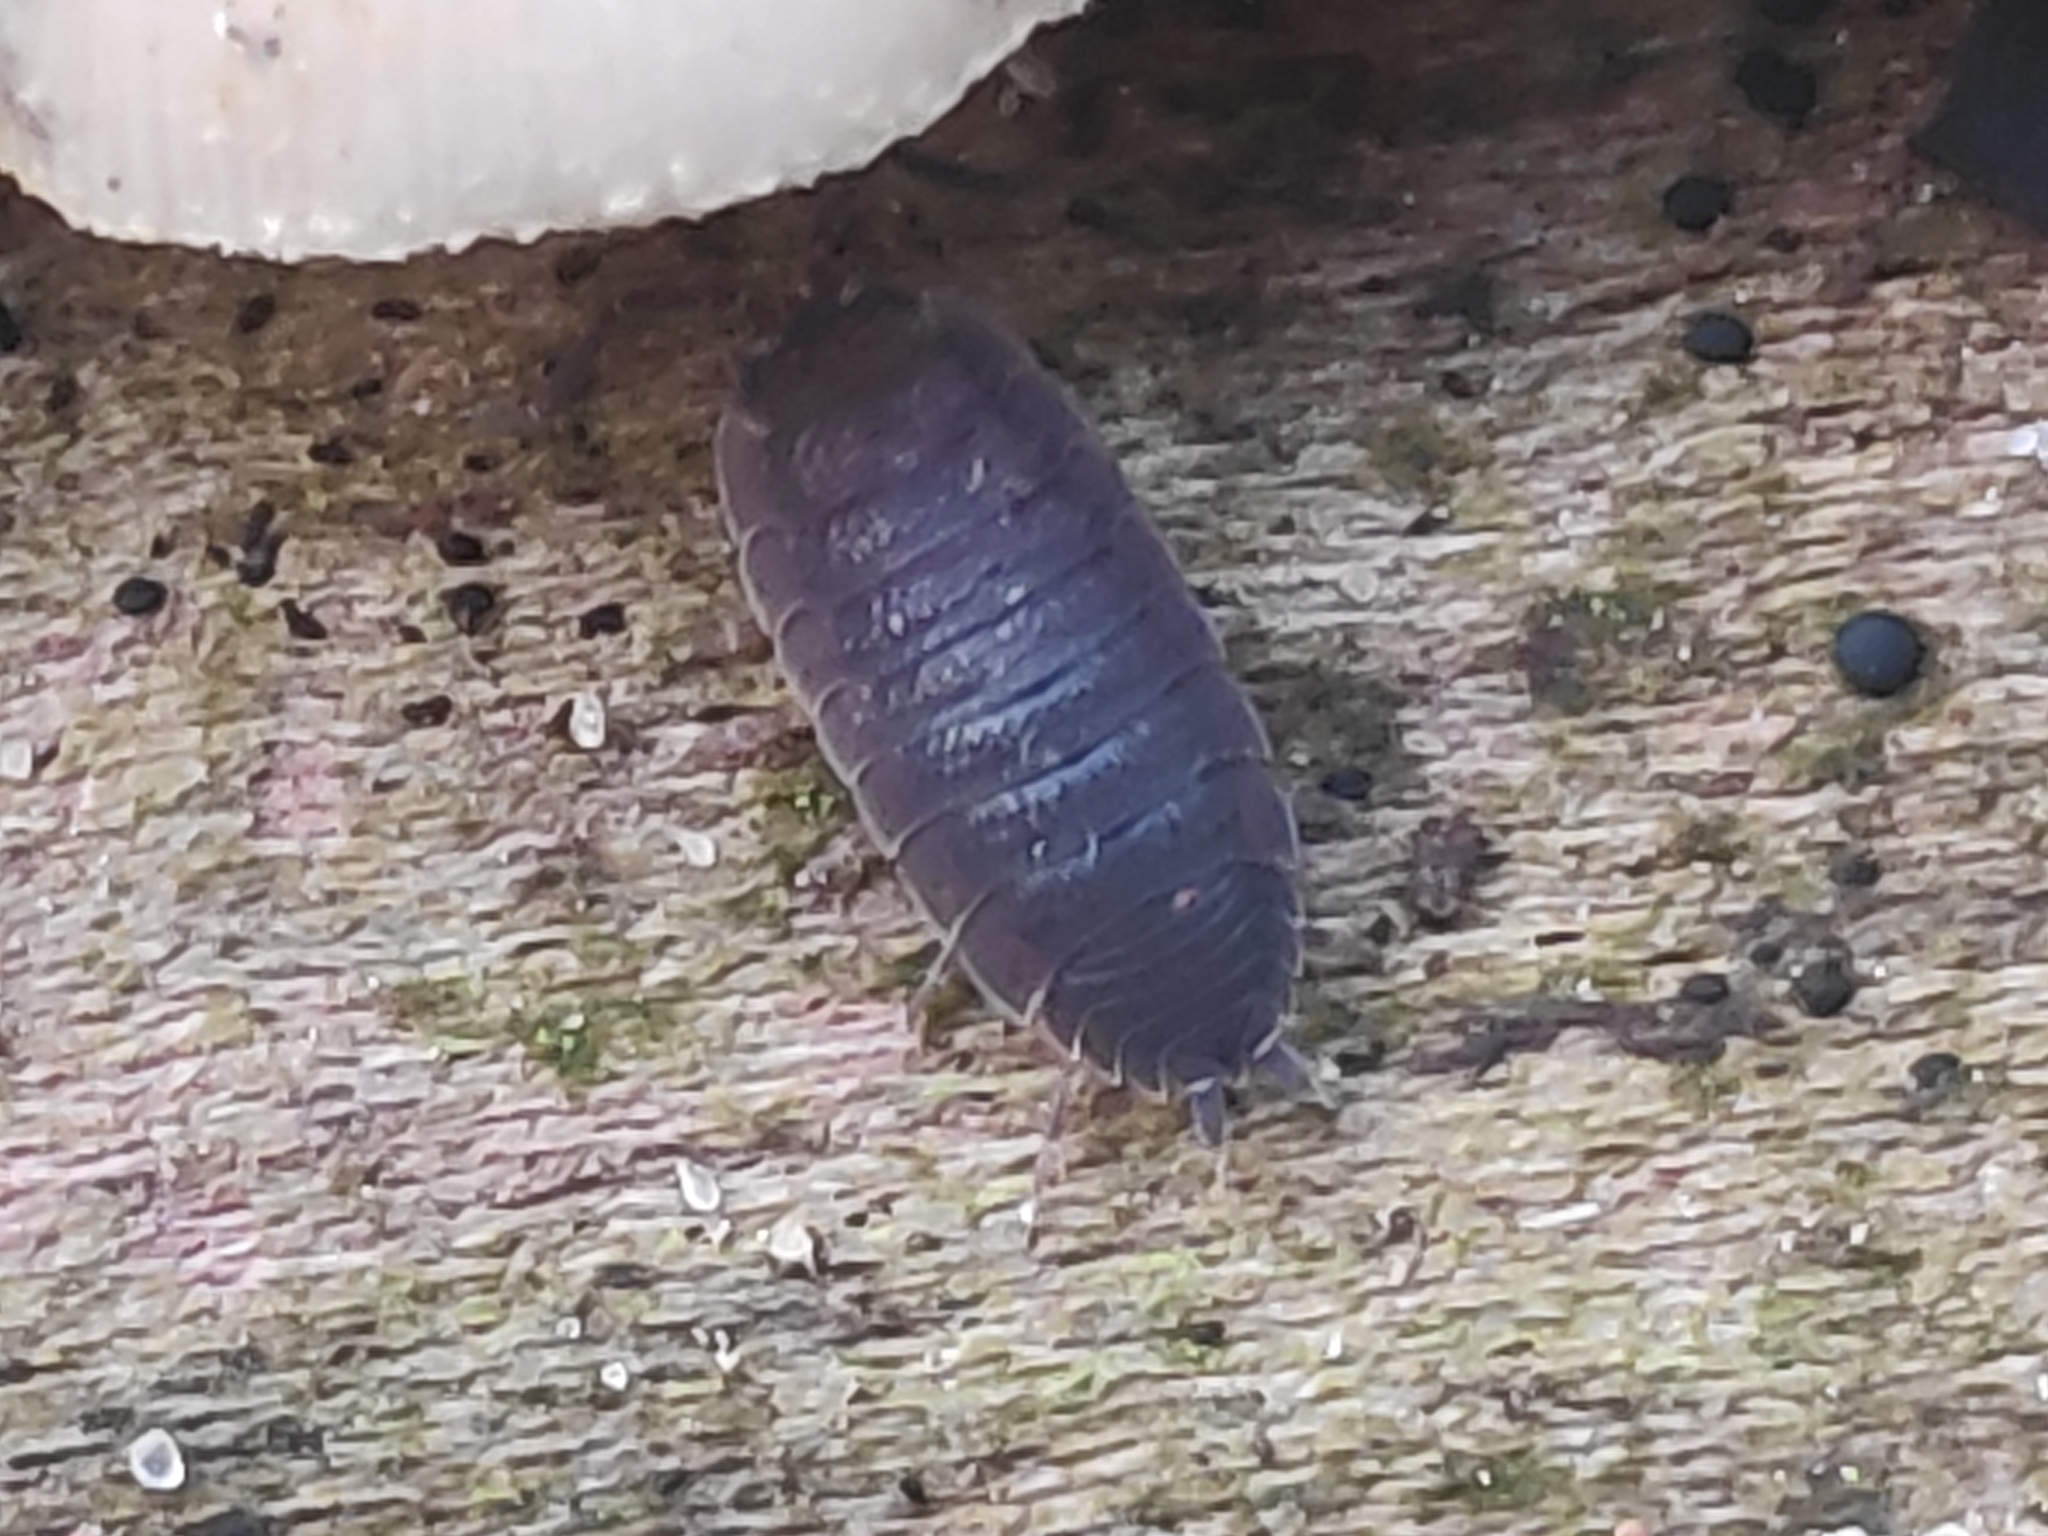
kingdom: Animalia
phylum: Arthropoda
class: Malacostraca
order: Isopoda
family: Porcellionidae
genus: Porcellio
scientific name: Porcellio scaber
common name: Common rough woodlouse
